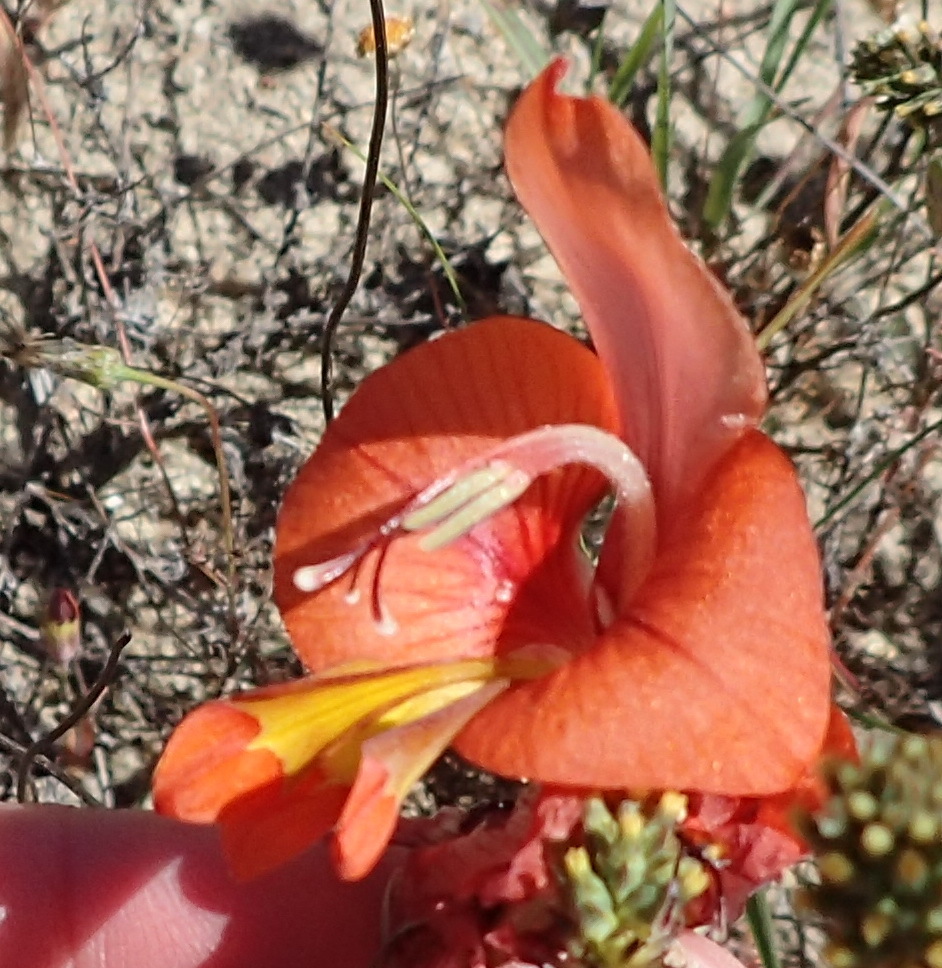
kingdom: Plantae
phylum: Tracheophyta
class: Liliopsida
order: Asparagales
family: Iridaceae
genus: Gladiolus
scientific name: Gladiolus alatus
